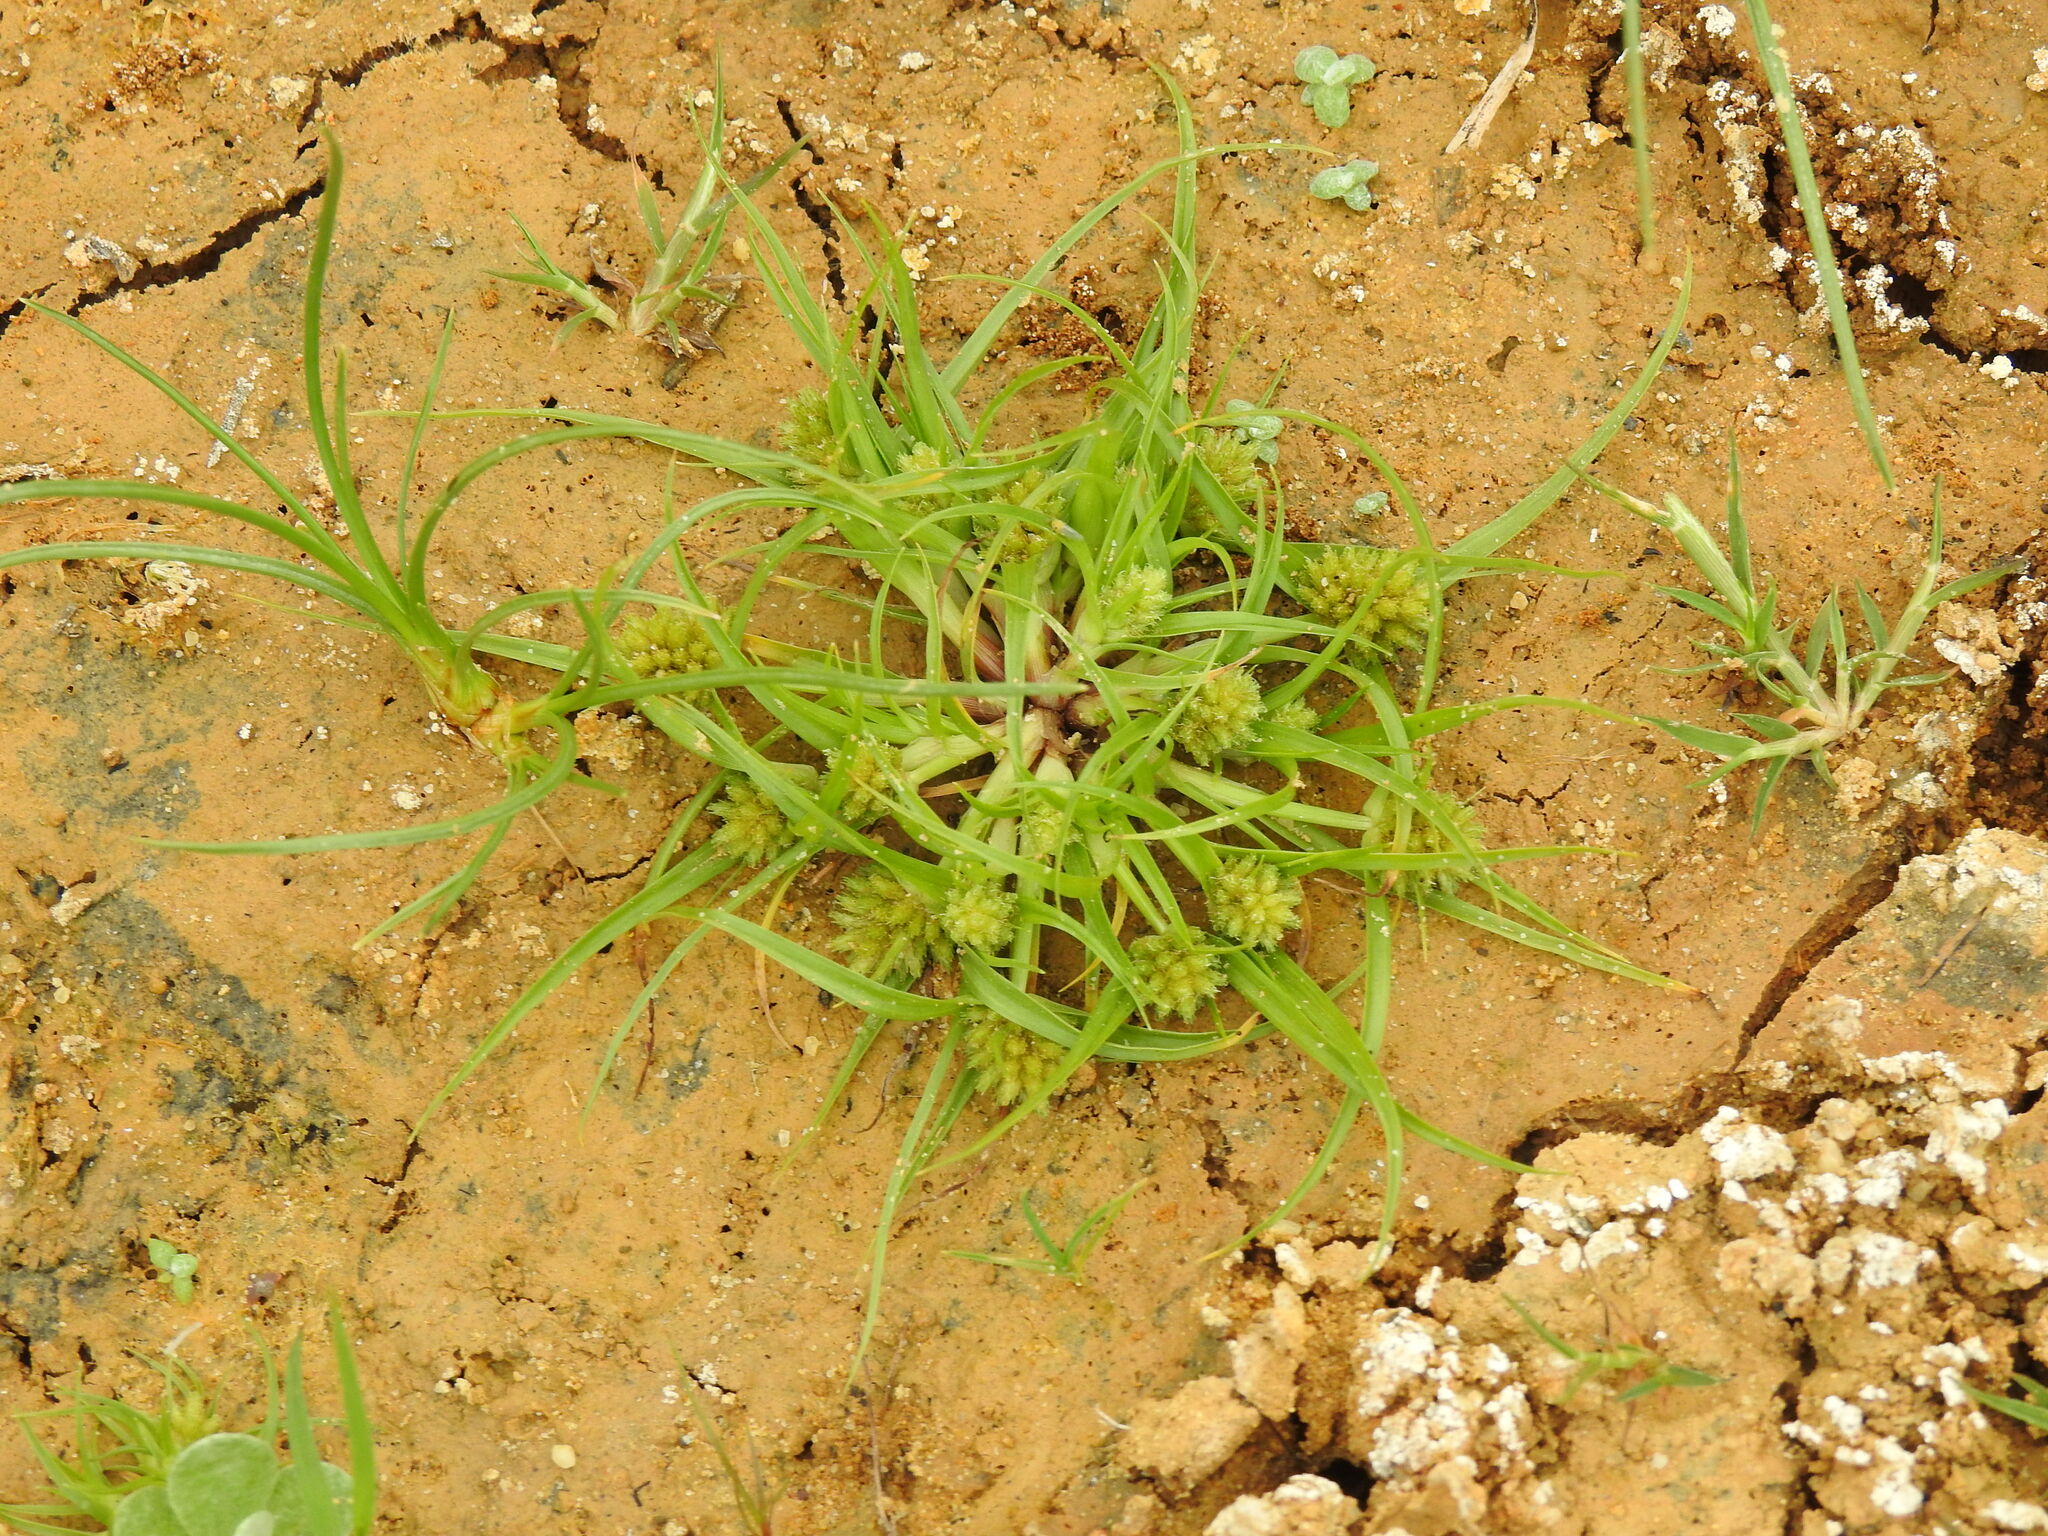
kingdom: Plantae
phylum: Tracheophyta
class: Liliopsida
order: Poales
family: Cyperaceae
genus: Cyperus
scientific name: Cyperus michelianus
